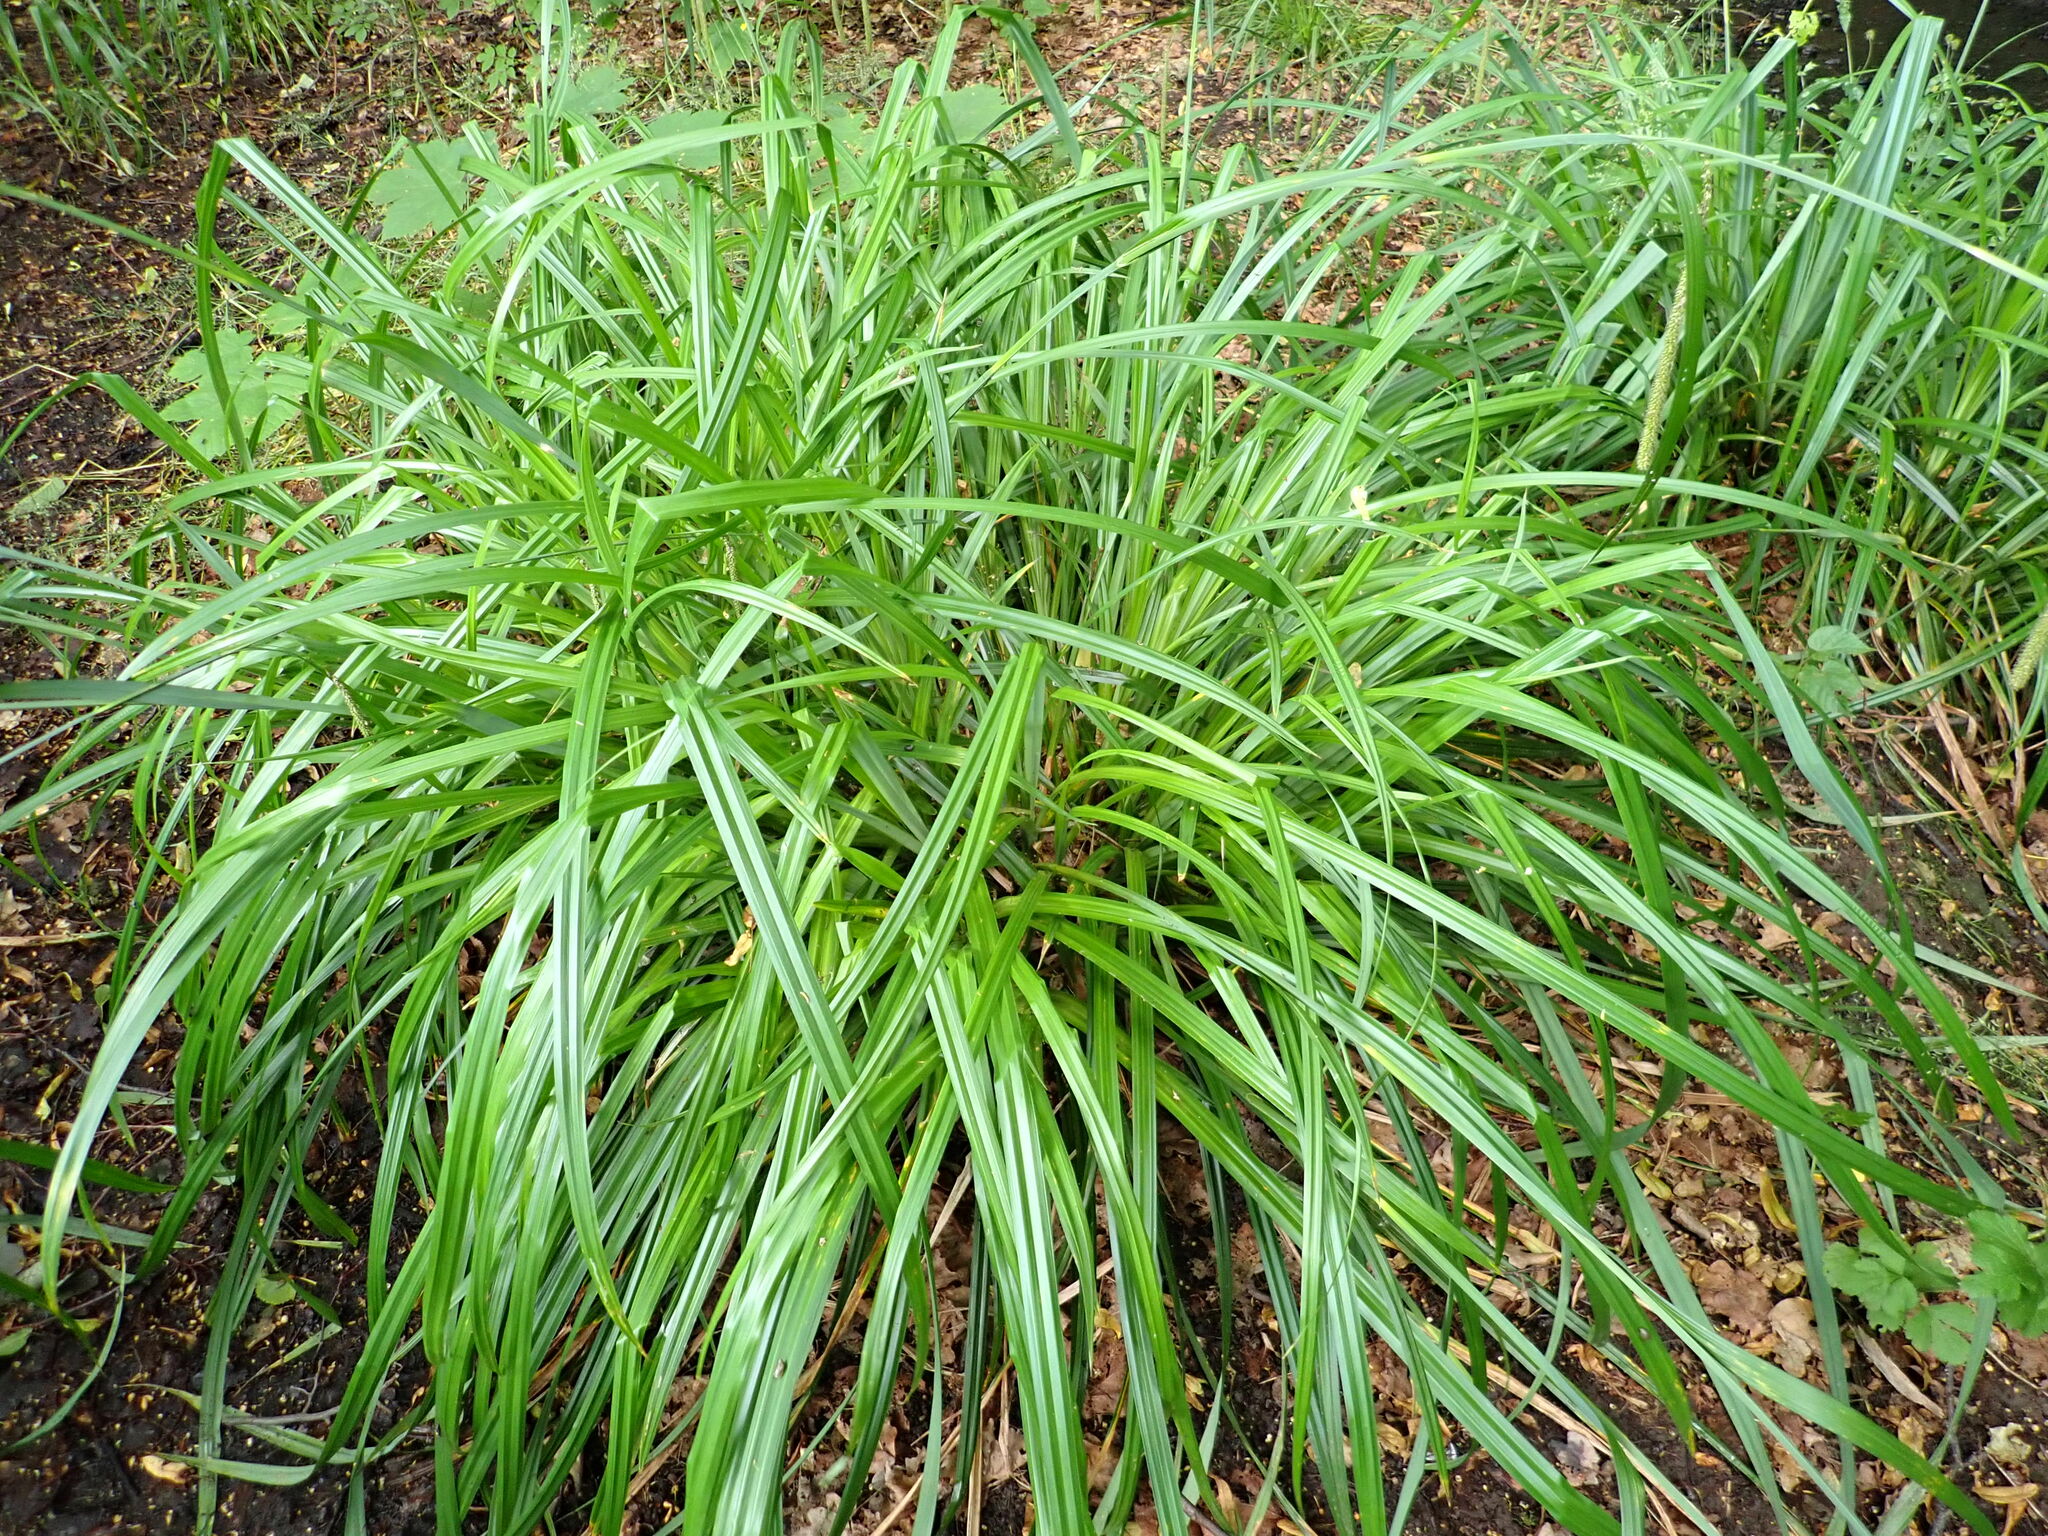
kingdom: Plantae
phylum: Tracheophyta
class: Liliopsida
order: Poales
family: Cyperaceae
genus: Carex
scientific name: Carex pendula
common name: Pendulous sedge
